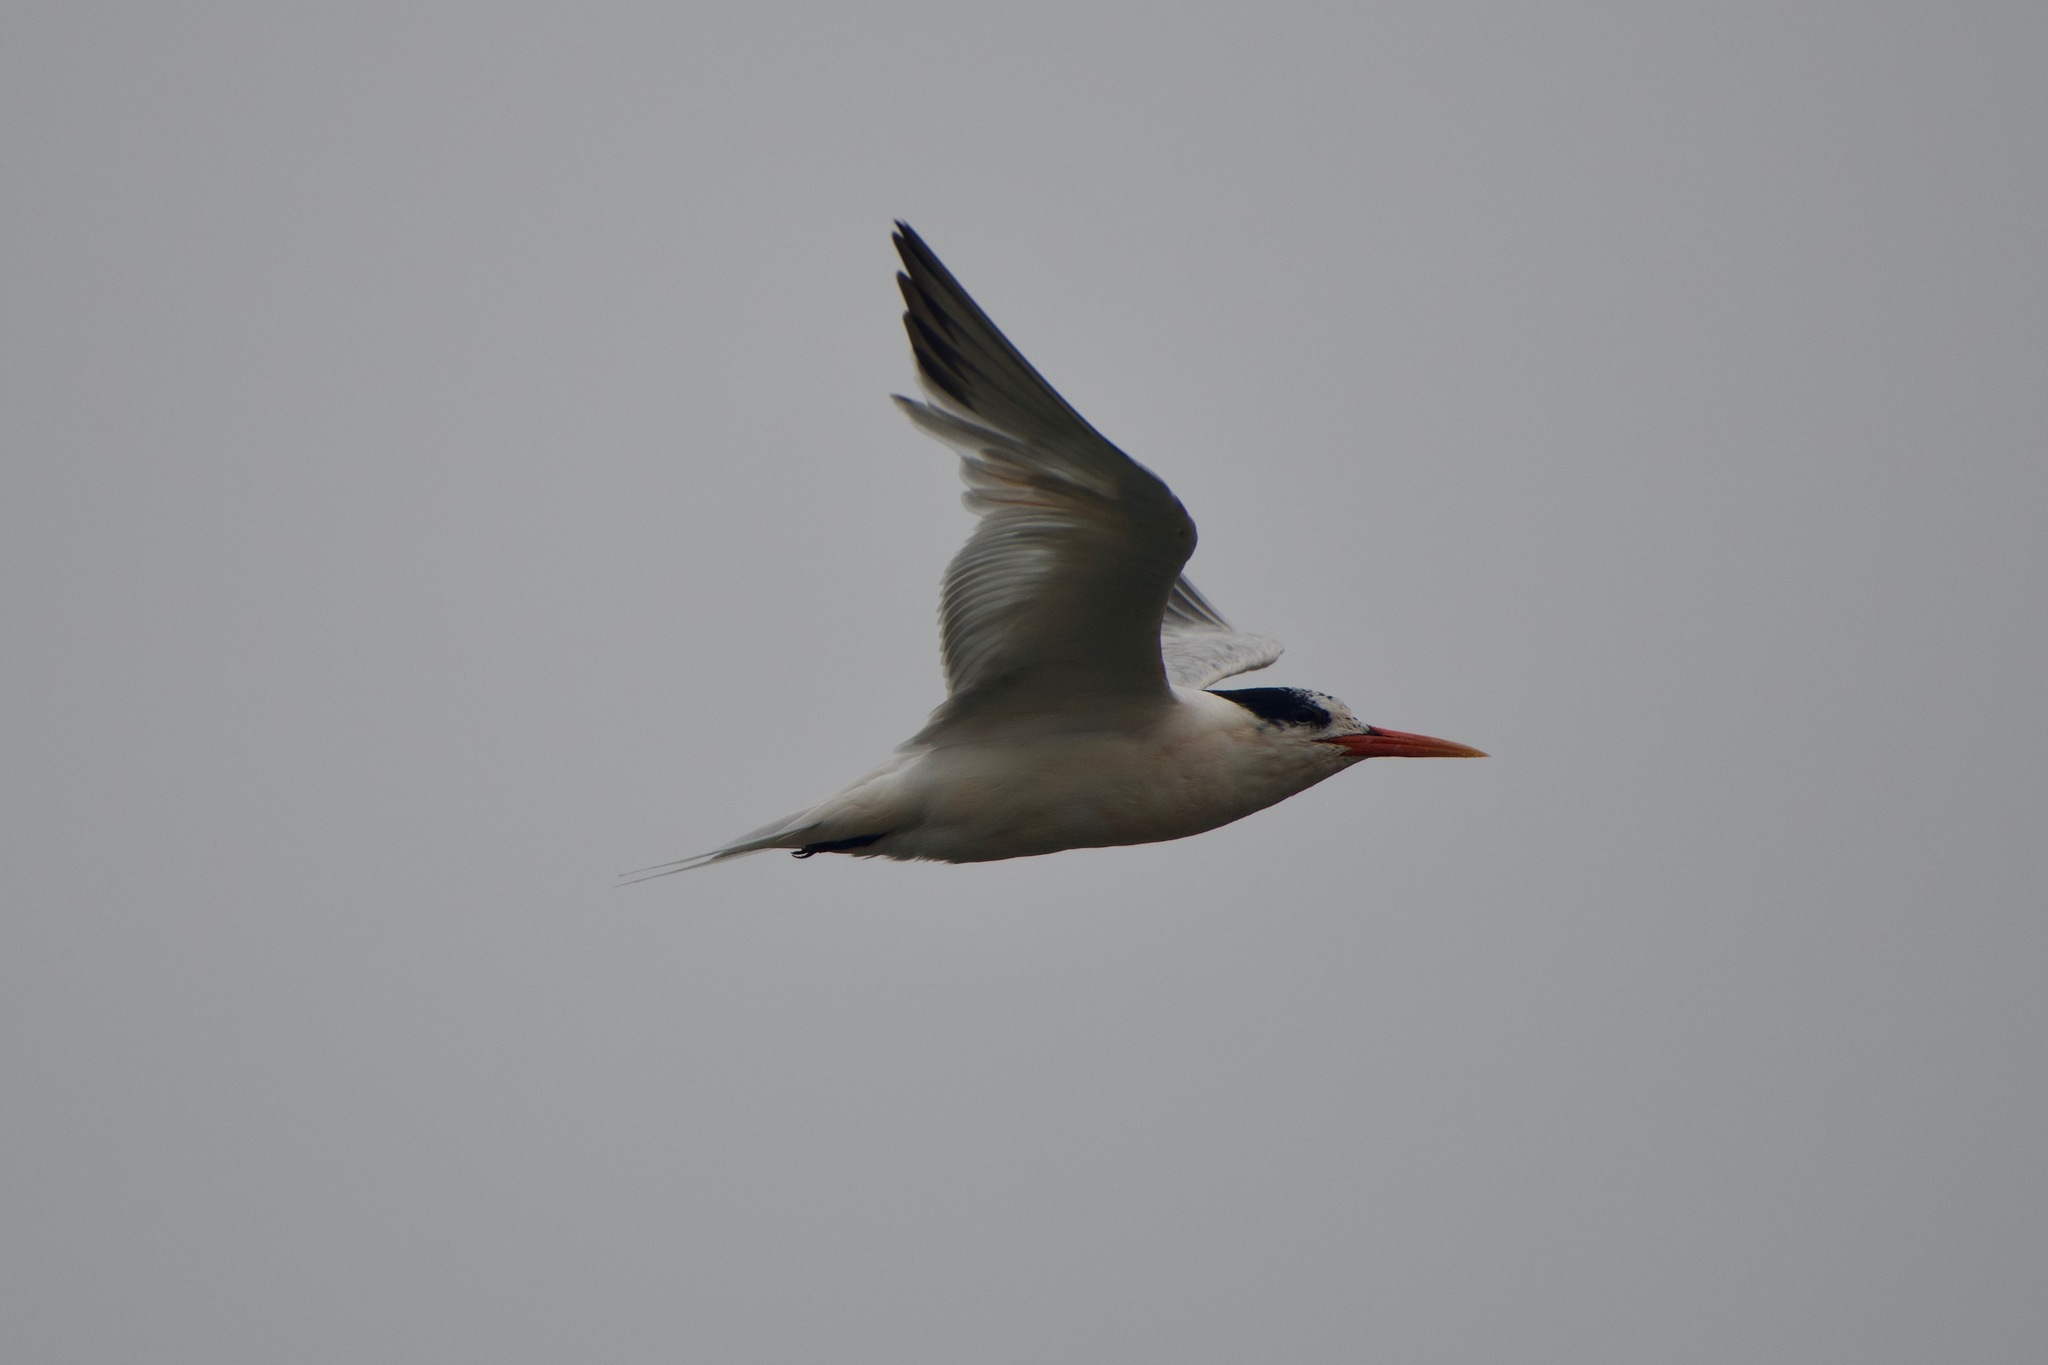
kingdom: Animalia
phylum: Chordata
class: Aves
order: Charadriiformes
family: Laridae
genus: Thalasseus
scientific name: Thalasseus elegans
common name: Elegant tern
